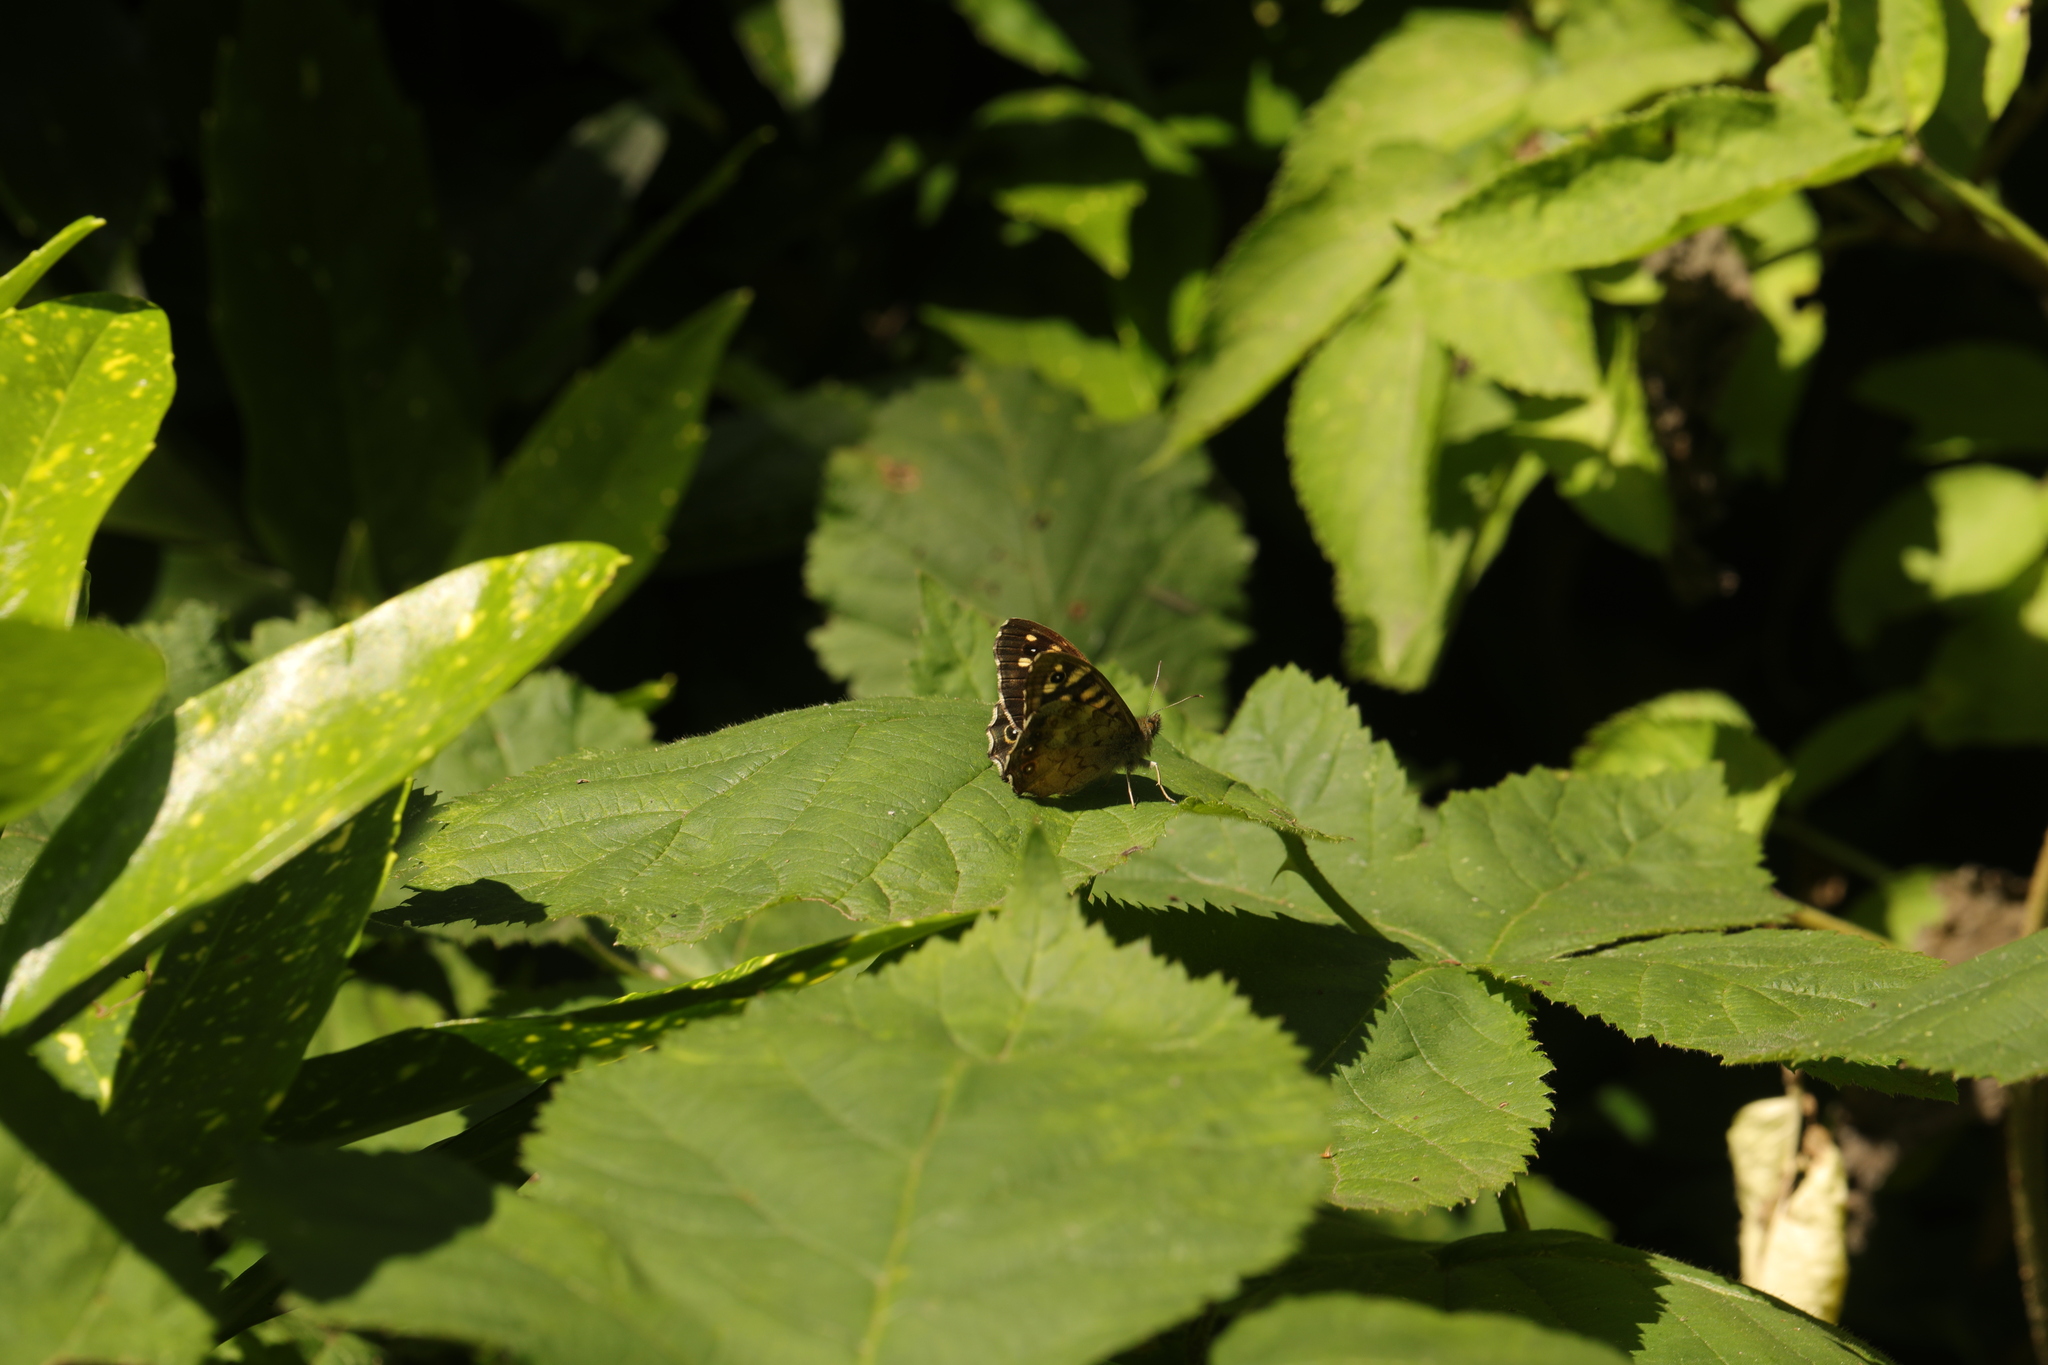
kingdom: Animalia
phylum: Arthropoda
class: Insecta
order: Lepidoptera
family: Nymphalidae
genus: Pararge
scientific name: Pararge aegeria
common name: Speckled wood
